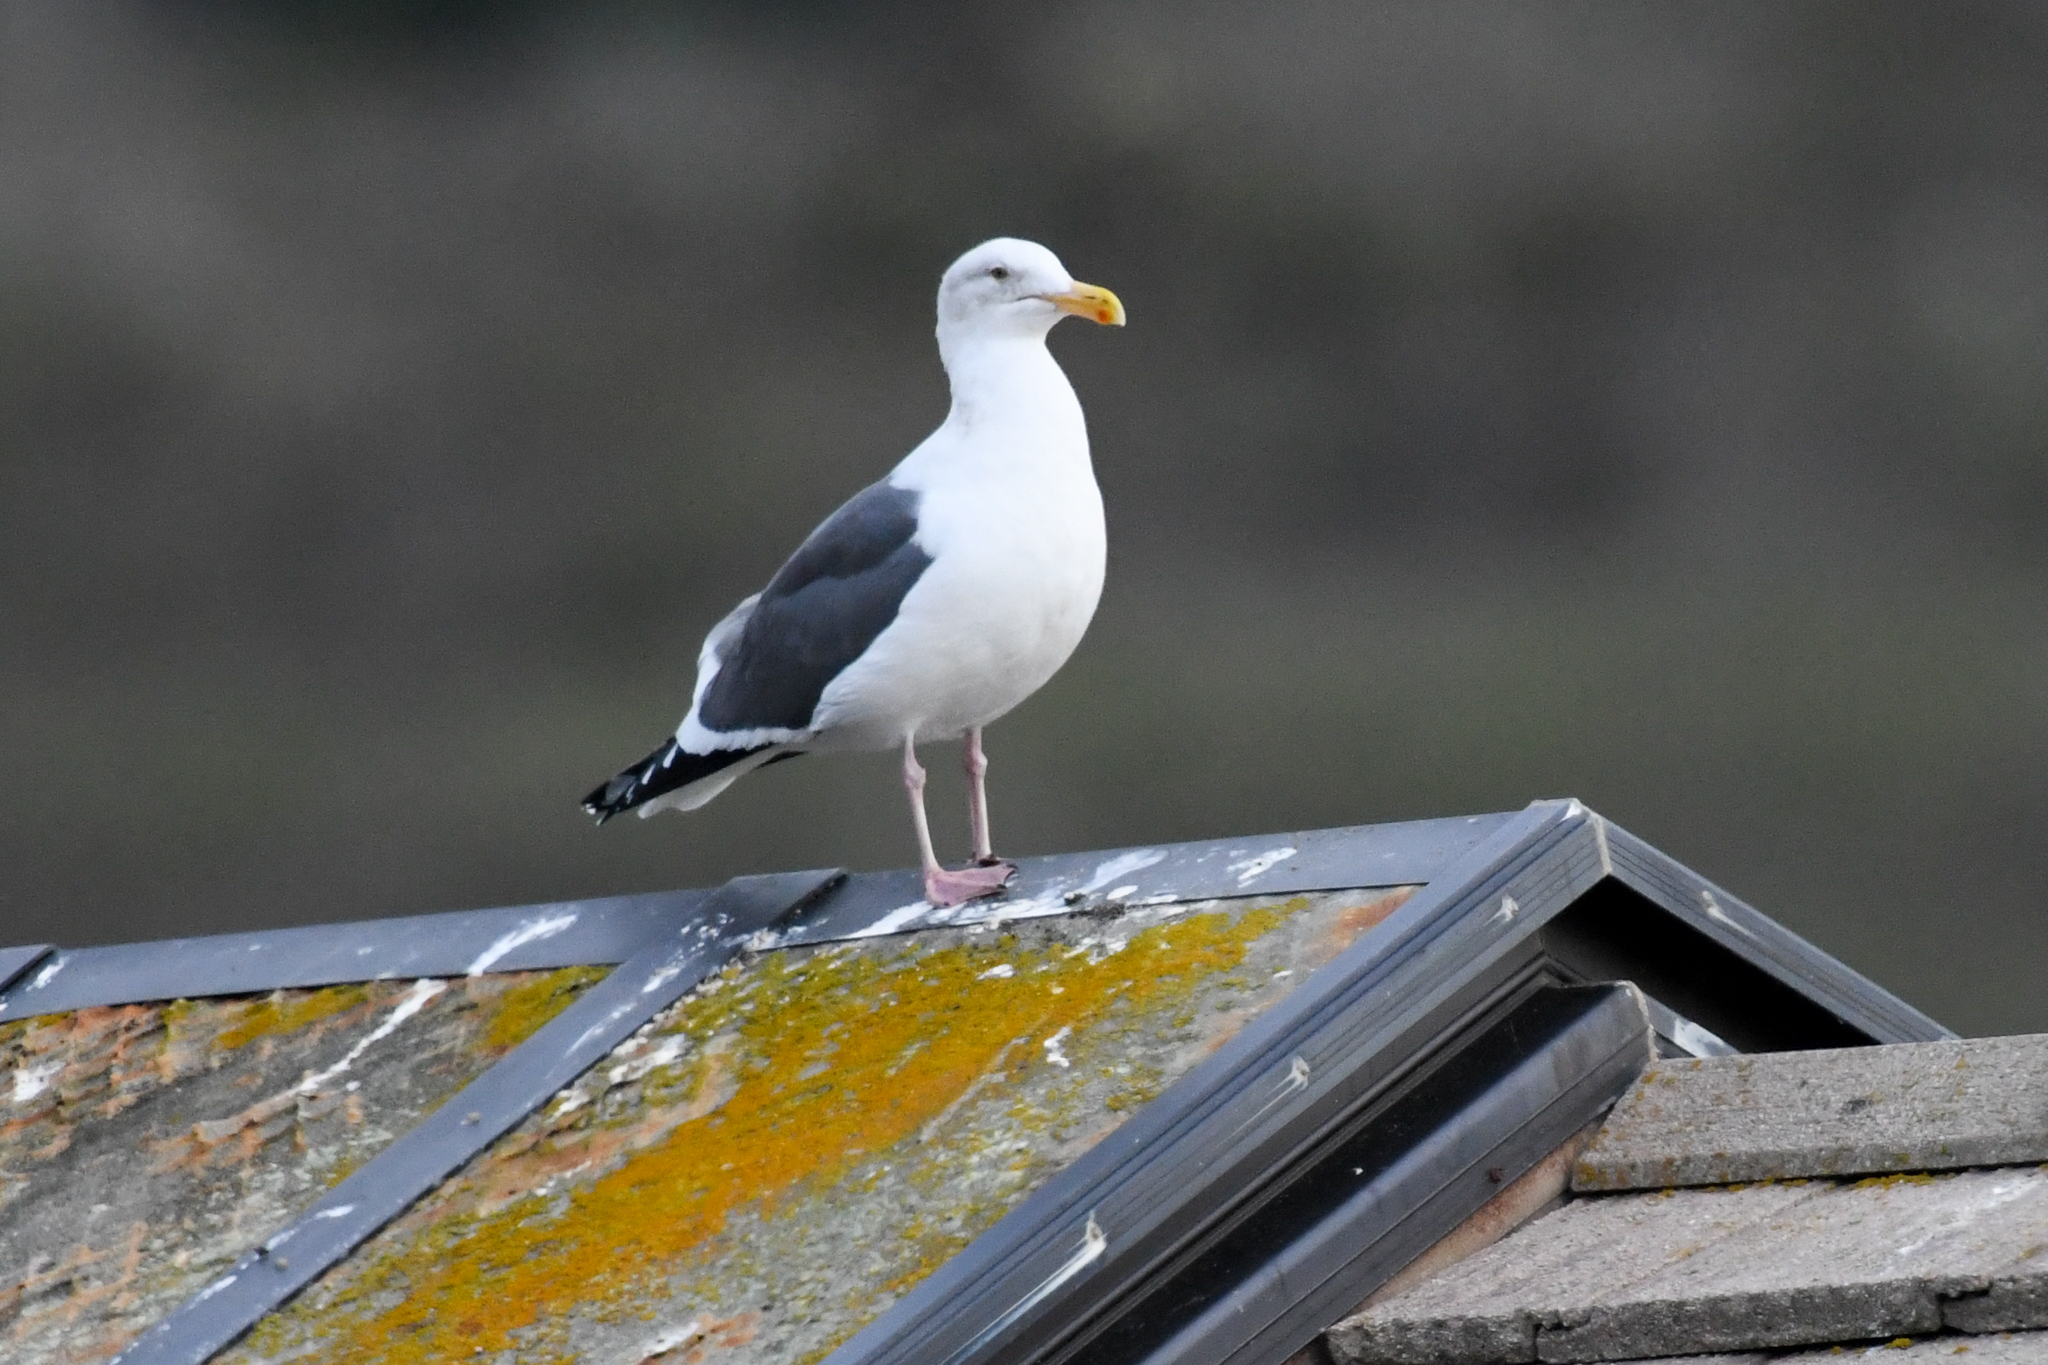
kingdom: Animalia
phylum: Chordata
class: Aves
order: Charadriiformes
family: Laridae
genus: Larus
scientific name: Larus occidentalis
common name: Western gull
